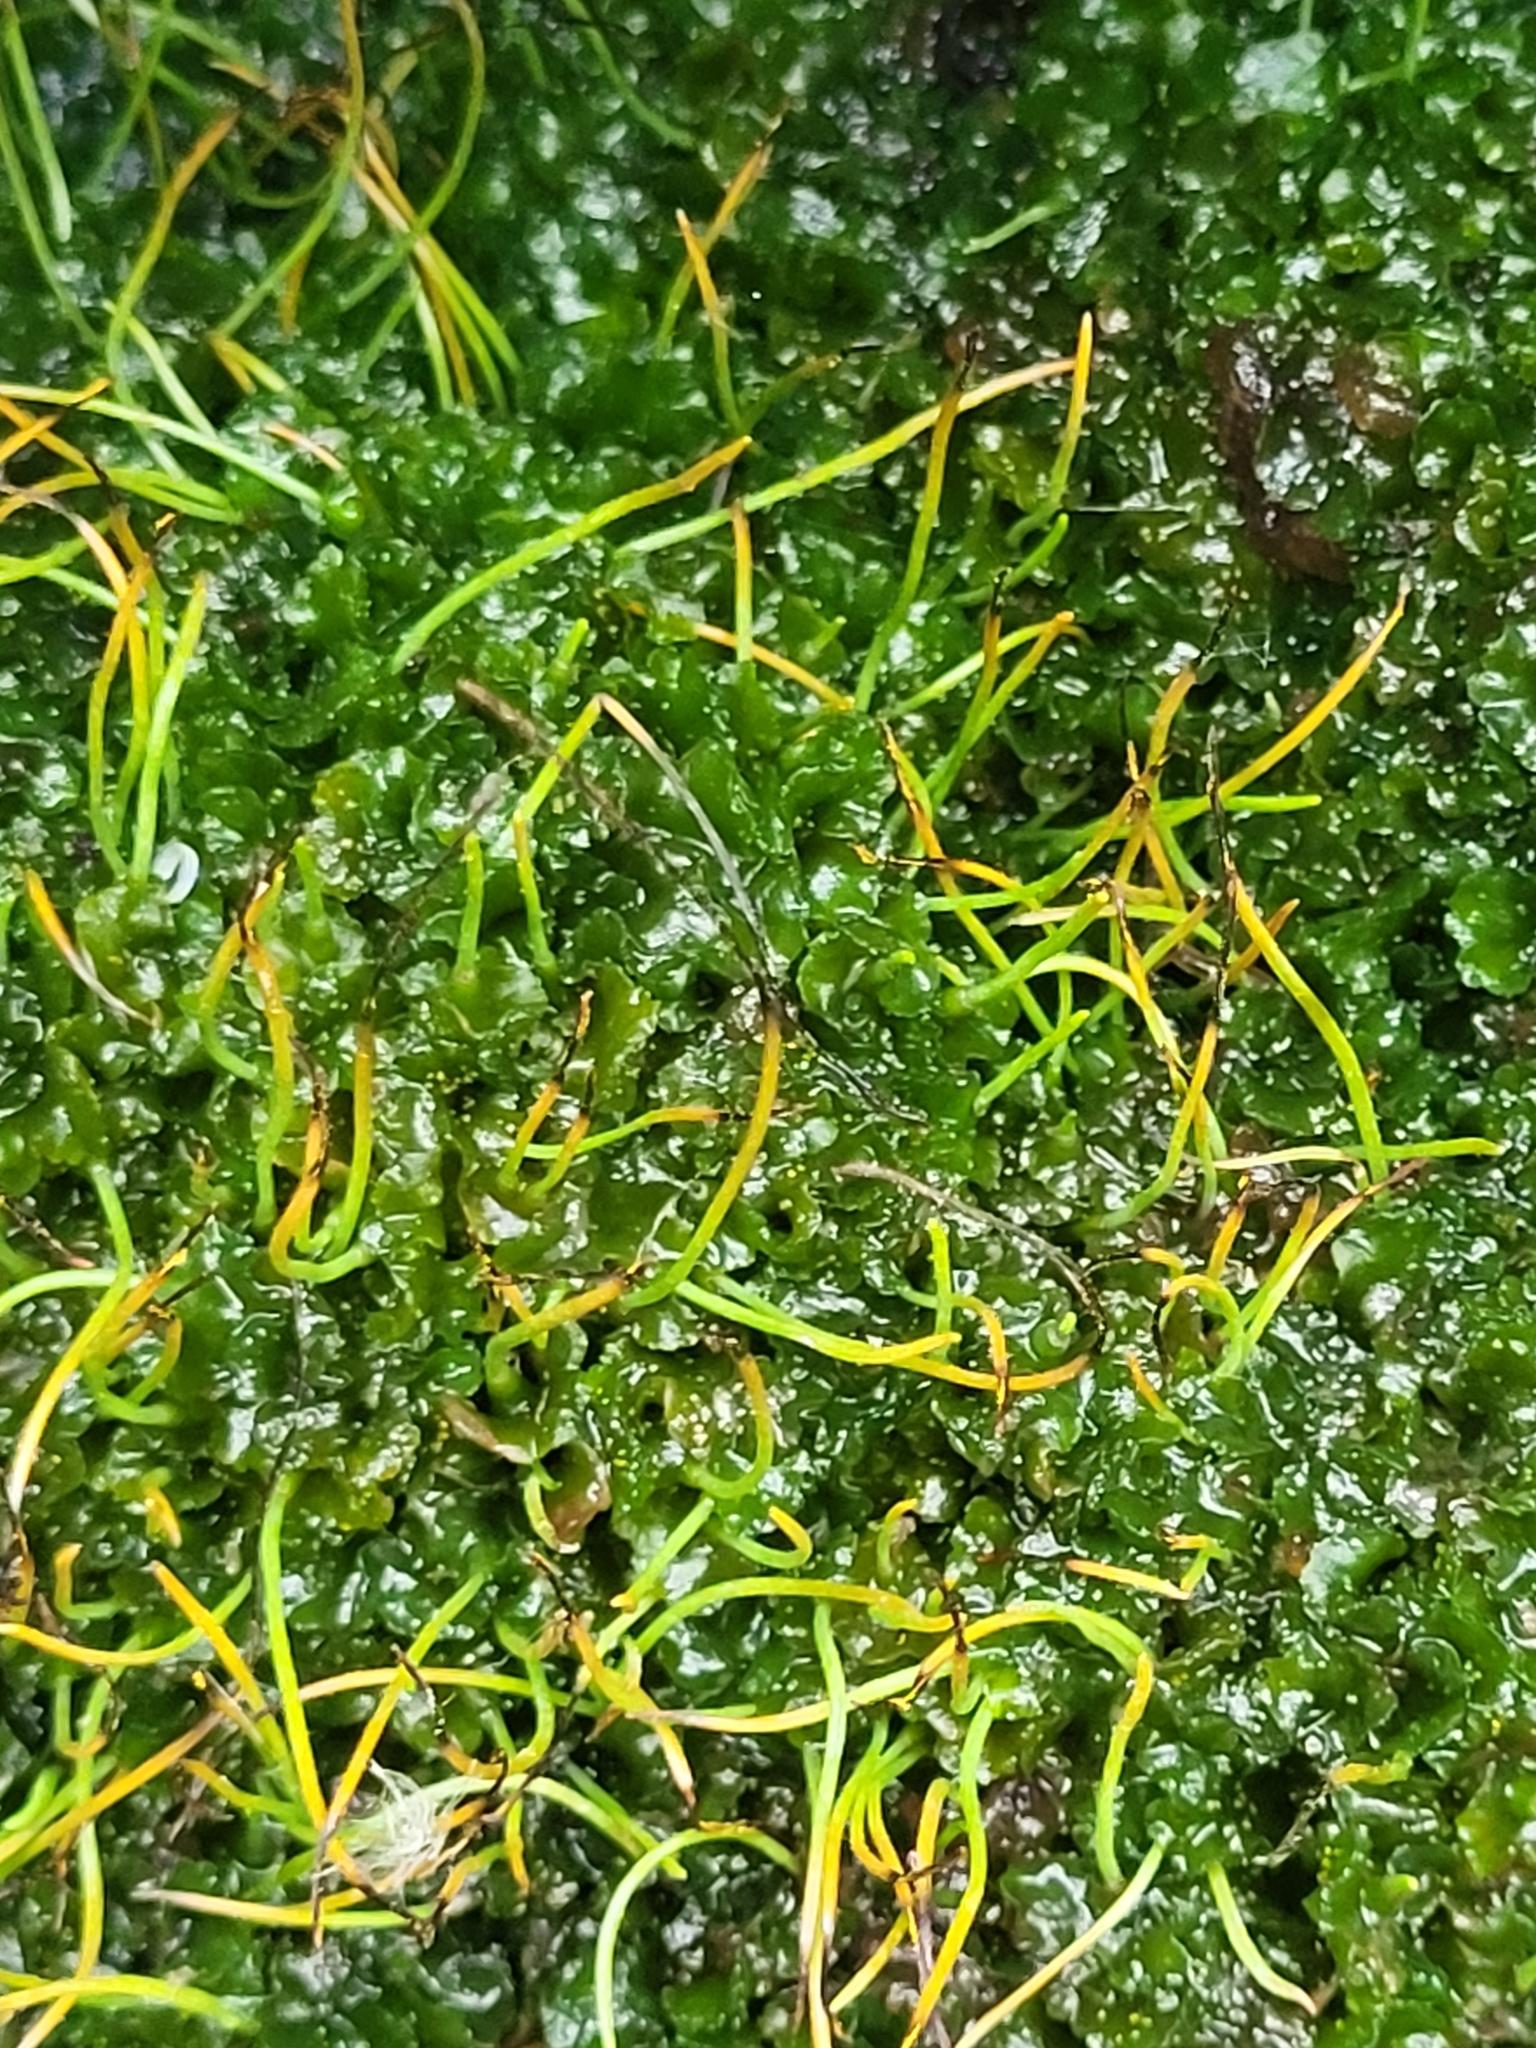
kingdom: Plantae
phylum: Anthocerotophyta
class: Anthocerotopsida
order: Notothyladales
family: Notothyladaceae
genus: Phaeoceros
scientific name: Phaeoceros carolinianus
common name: Carolina hornwort
